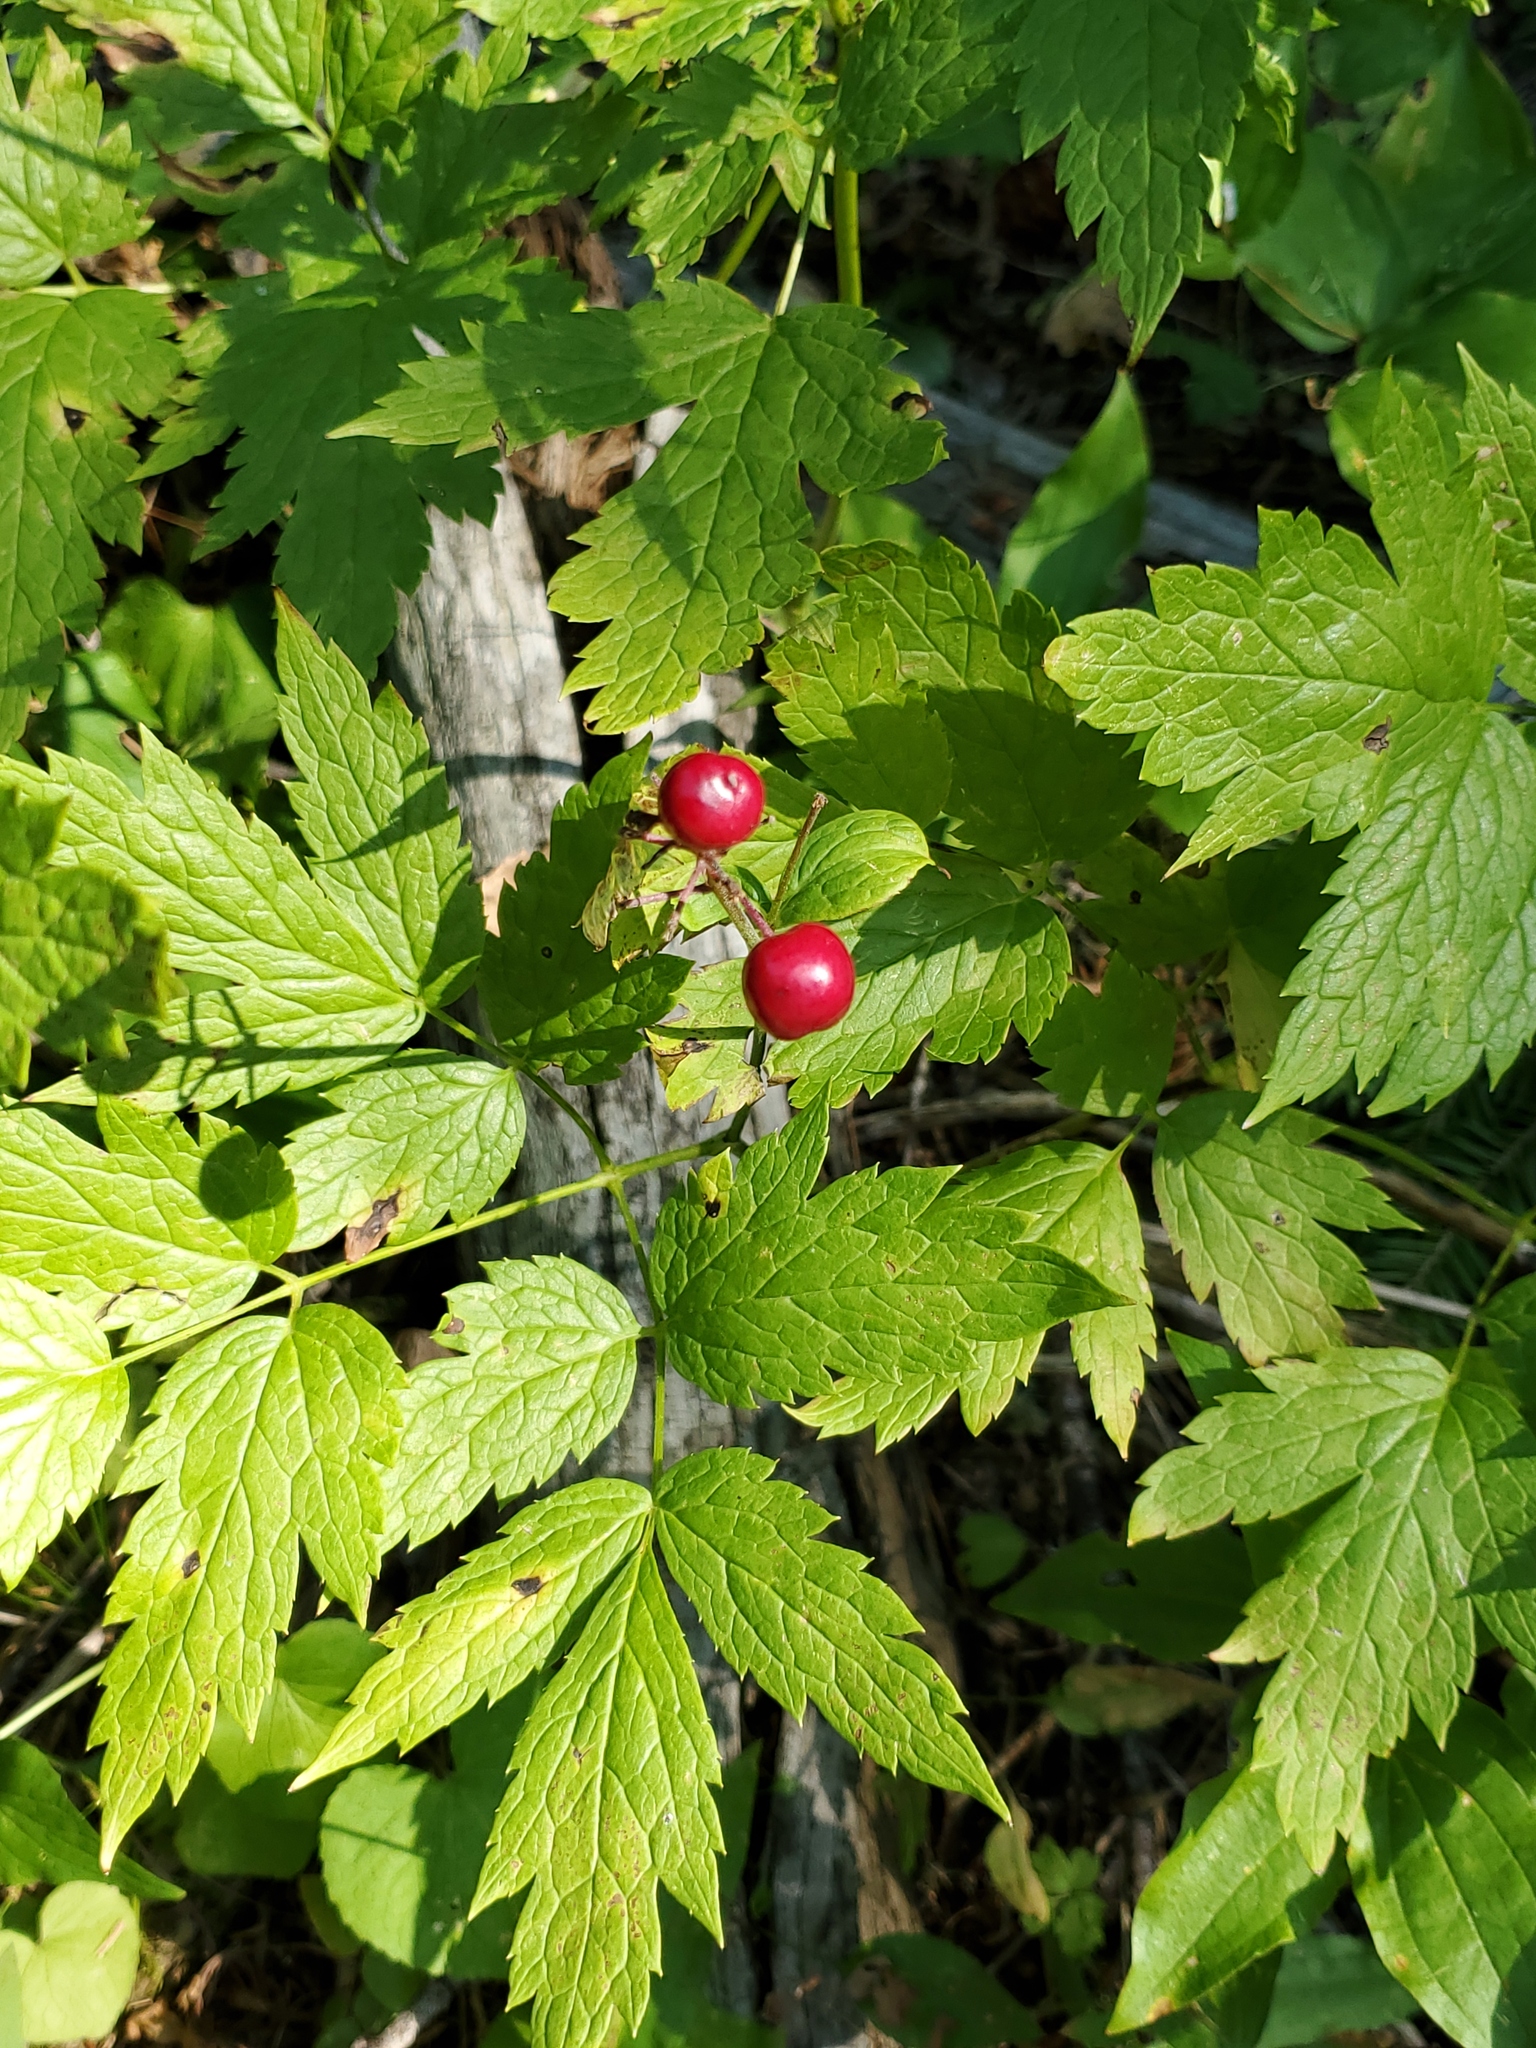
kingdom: Plantae
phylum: Tracheophyta
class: Magnoliopsida
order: Ranunculales
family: Ranunculaceae
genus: Actaea
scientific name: Actaea rubra
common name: Red baneberry
